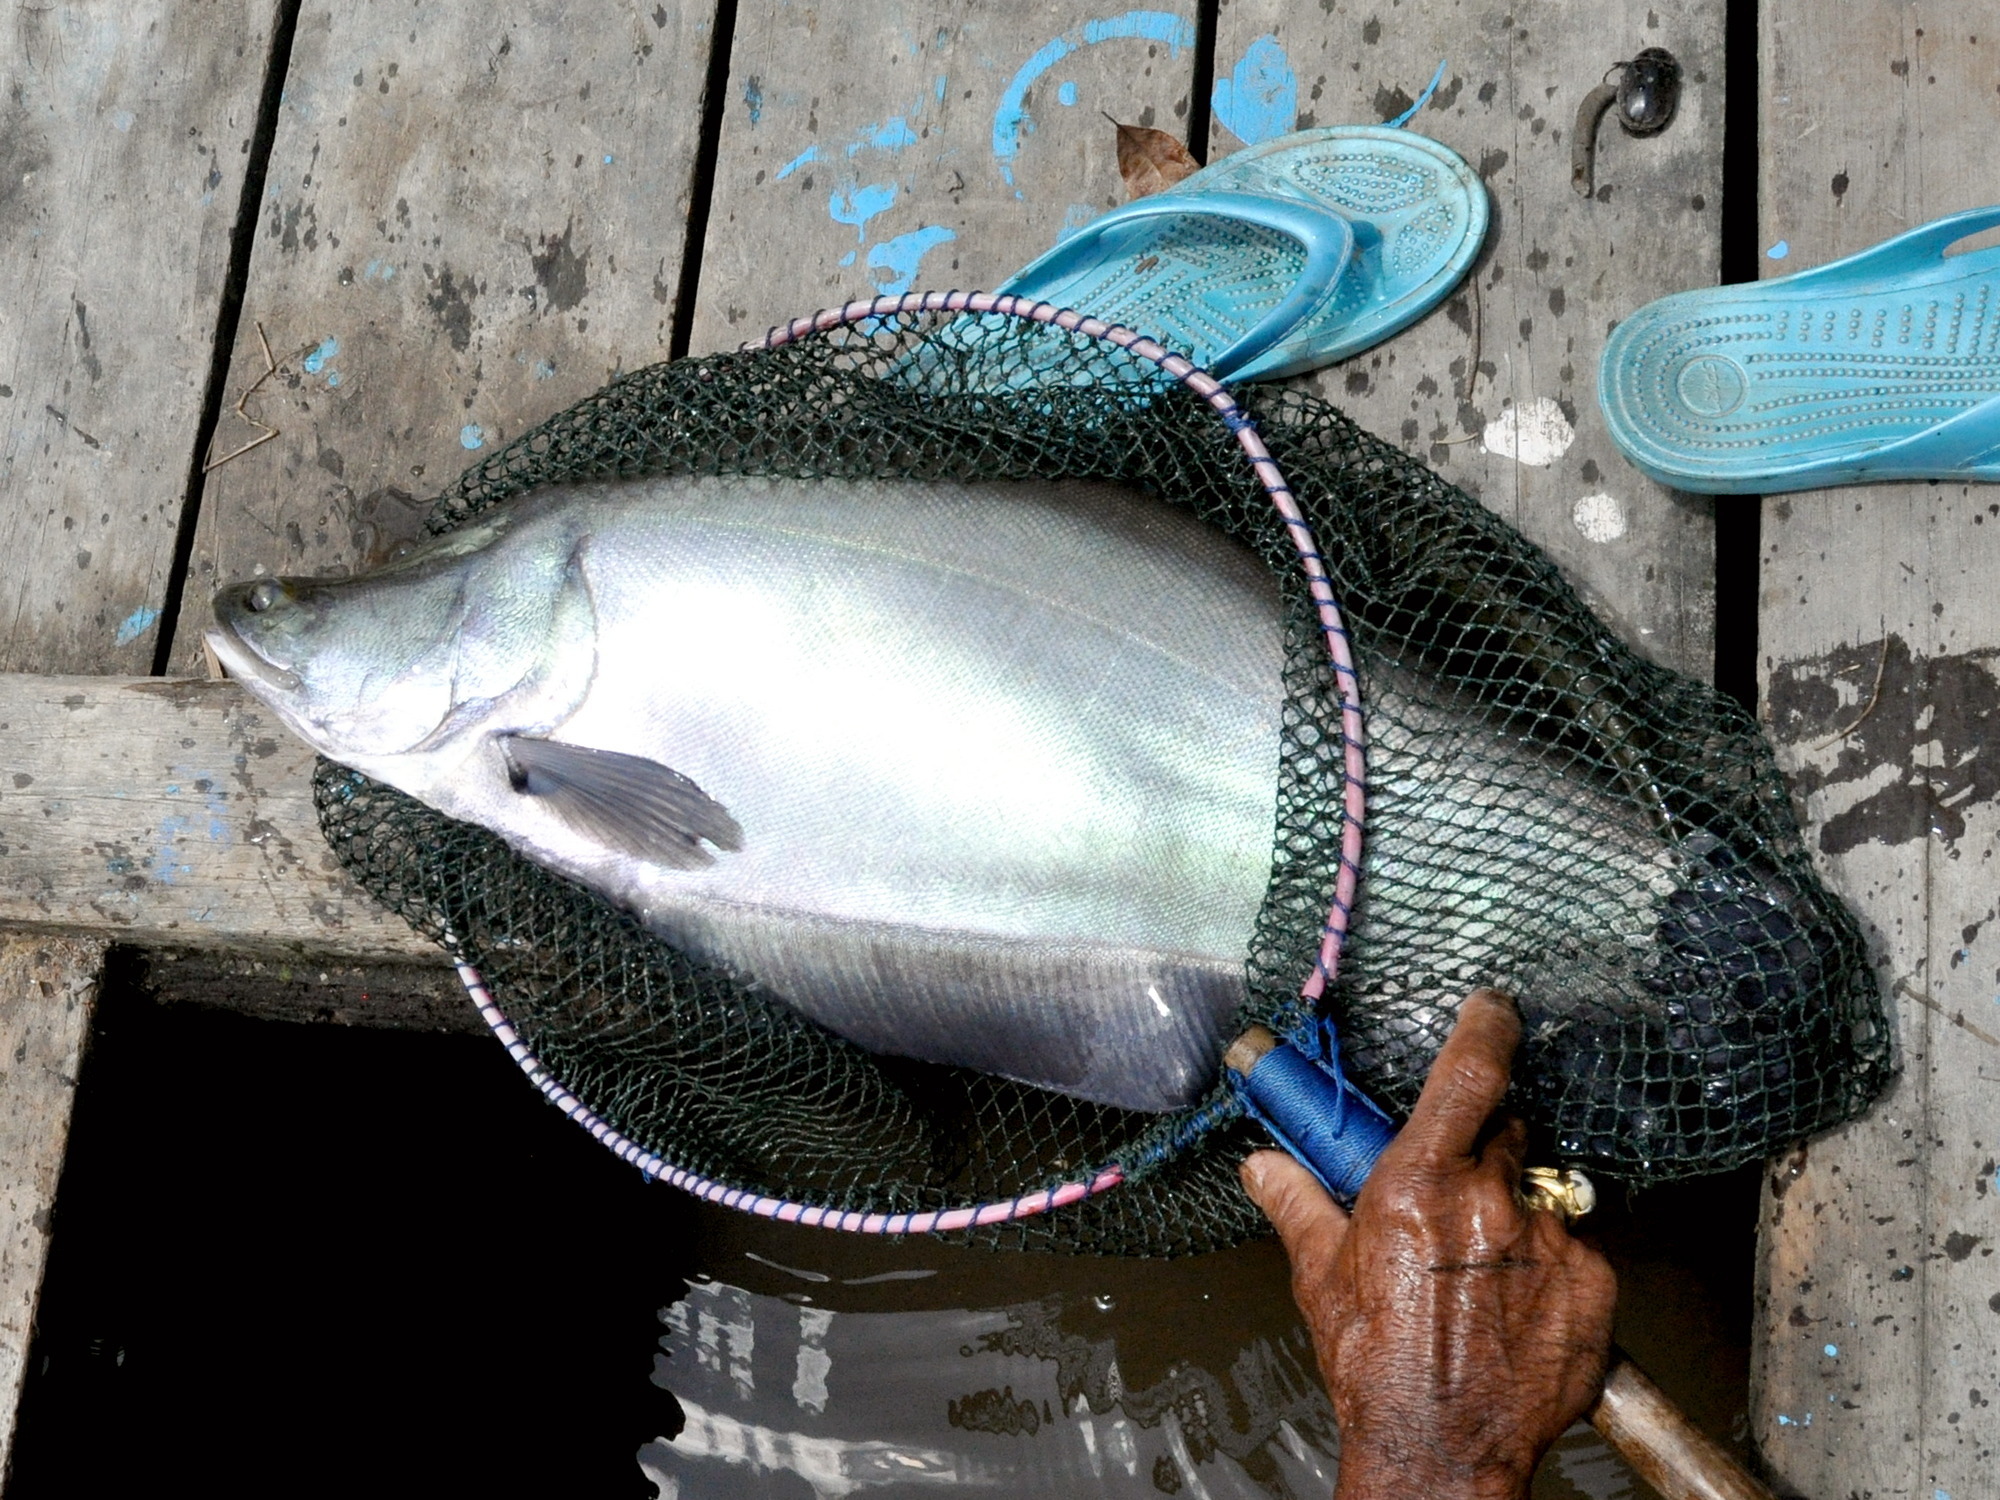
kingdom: Animalia
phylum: Chordata
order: Osteoglossiformes
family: Notopteridae
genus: Chitala
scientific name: Chitala hypselonotus
